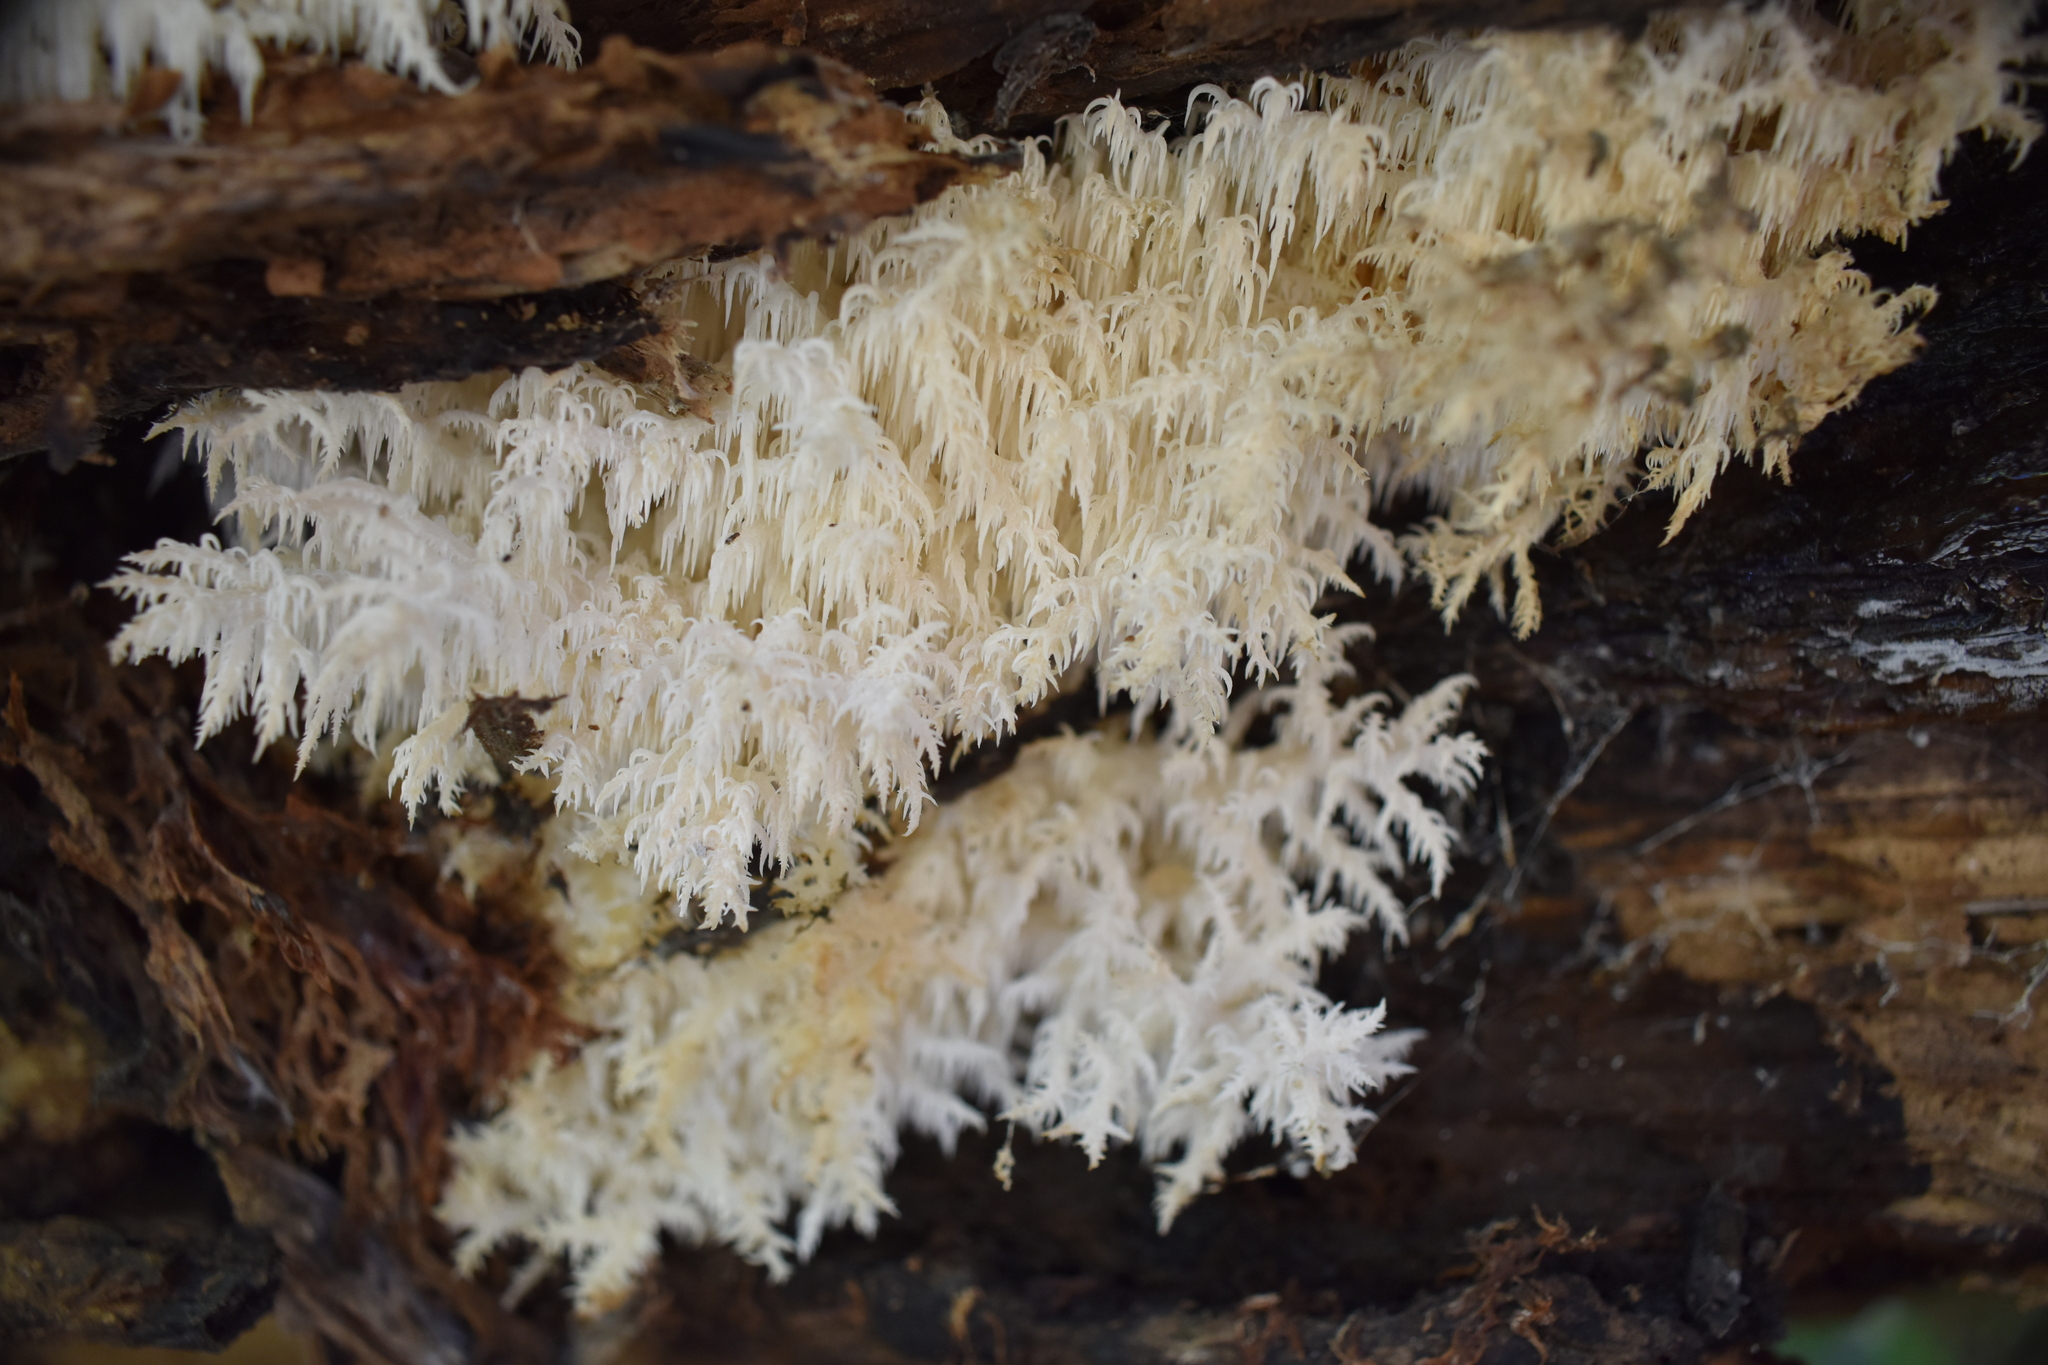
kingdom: Fungi
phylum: Basidiomycota
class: Agaricomycetes
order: Russulales
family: Hericiaceae
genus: Hericium
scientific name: Hericium novae-zealandiae
